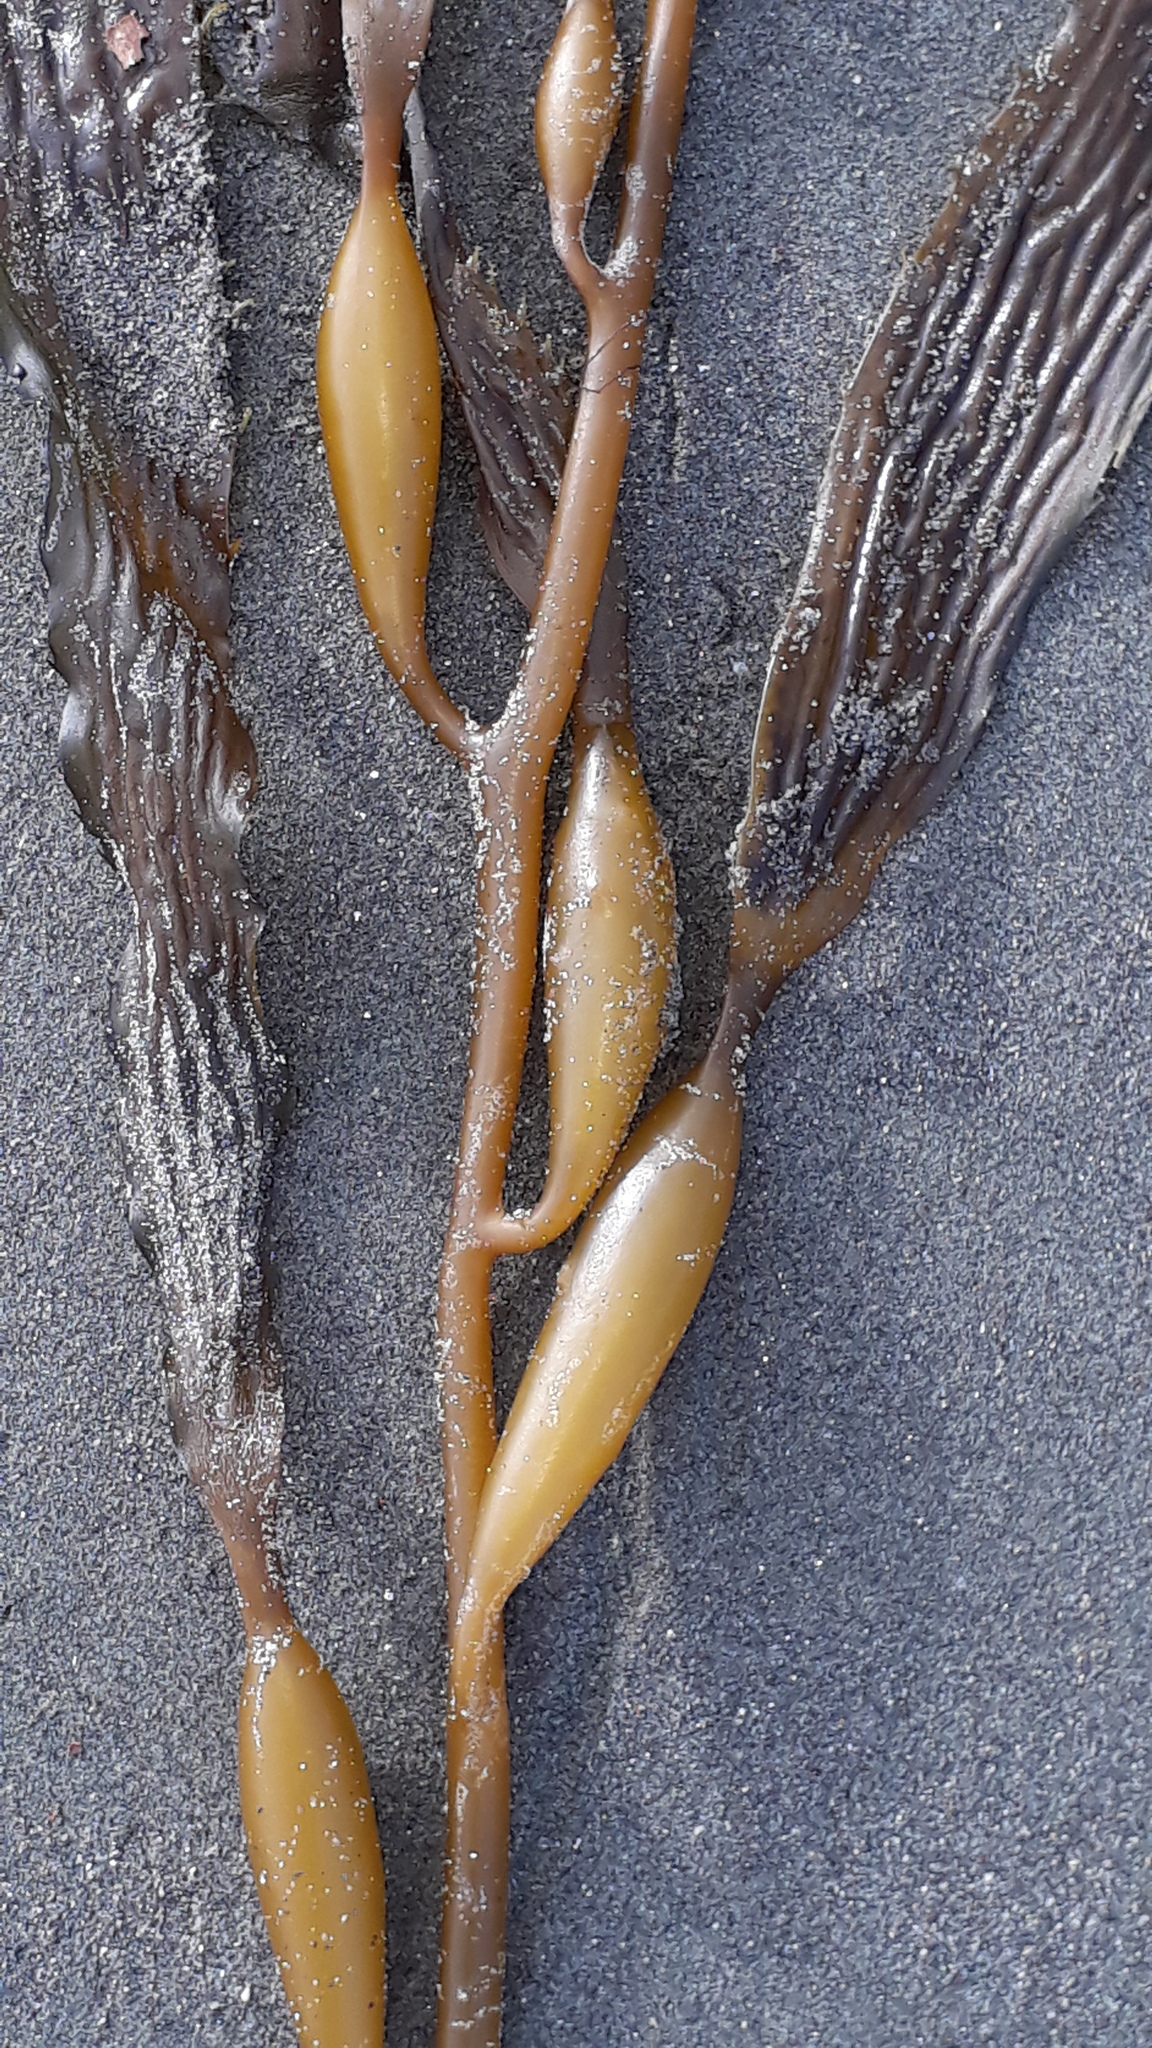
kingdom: Chromista
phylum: Ochrophyta
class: Phaeophyceae
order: Laminariales
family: Laminariaceae
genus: Macrocystis
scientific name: Macrocystis pyrifera
